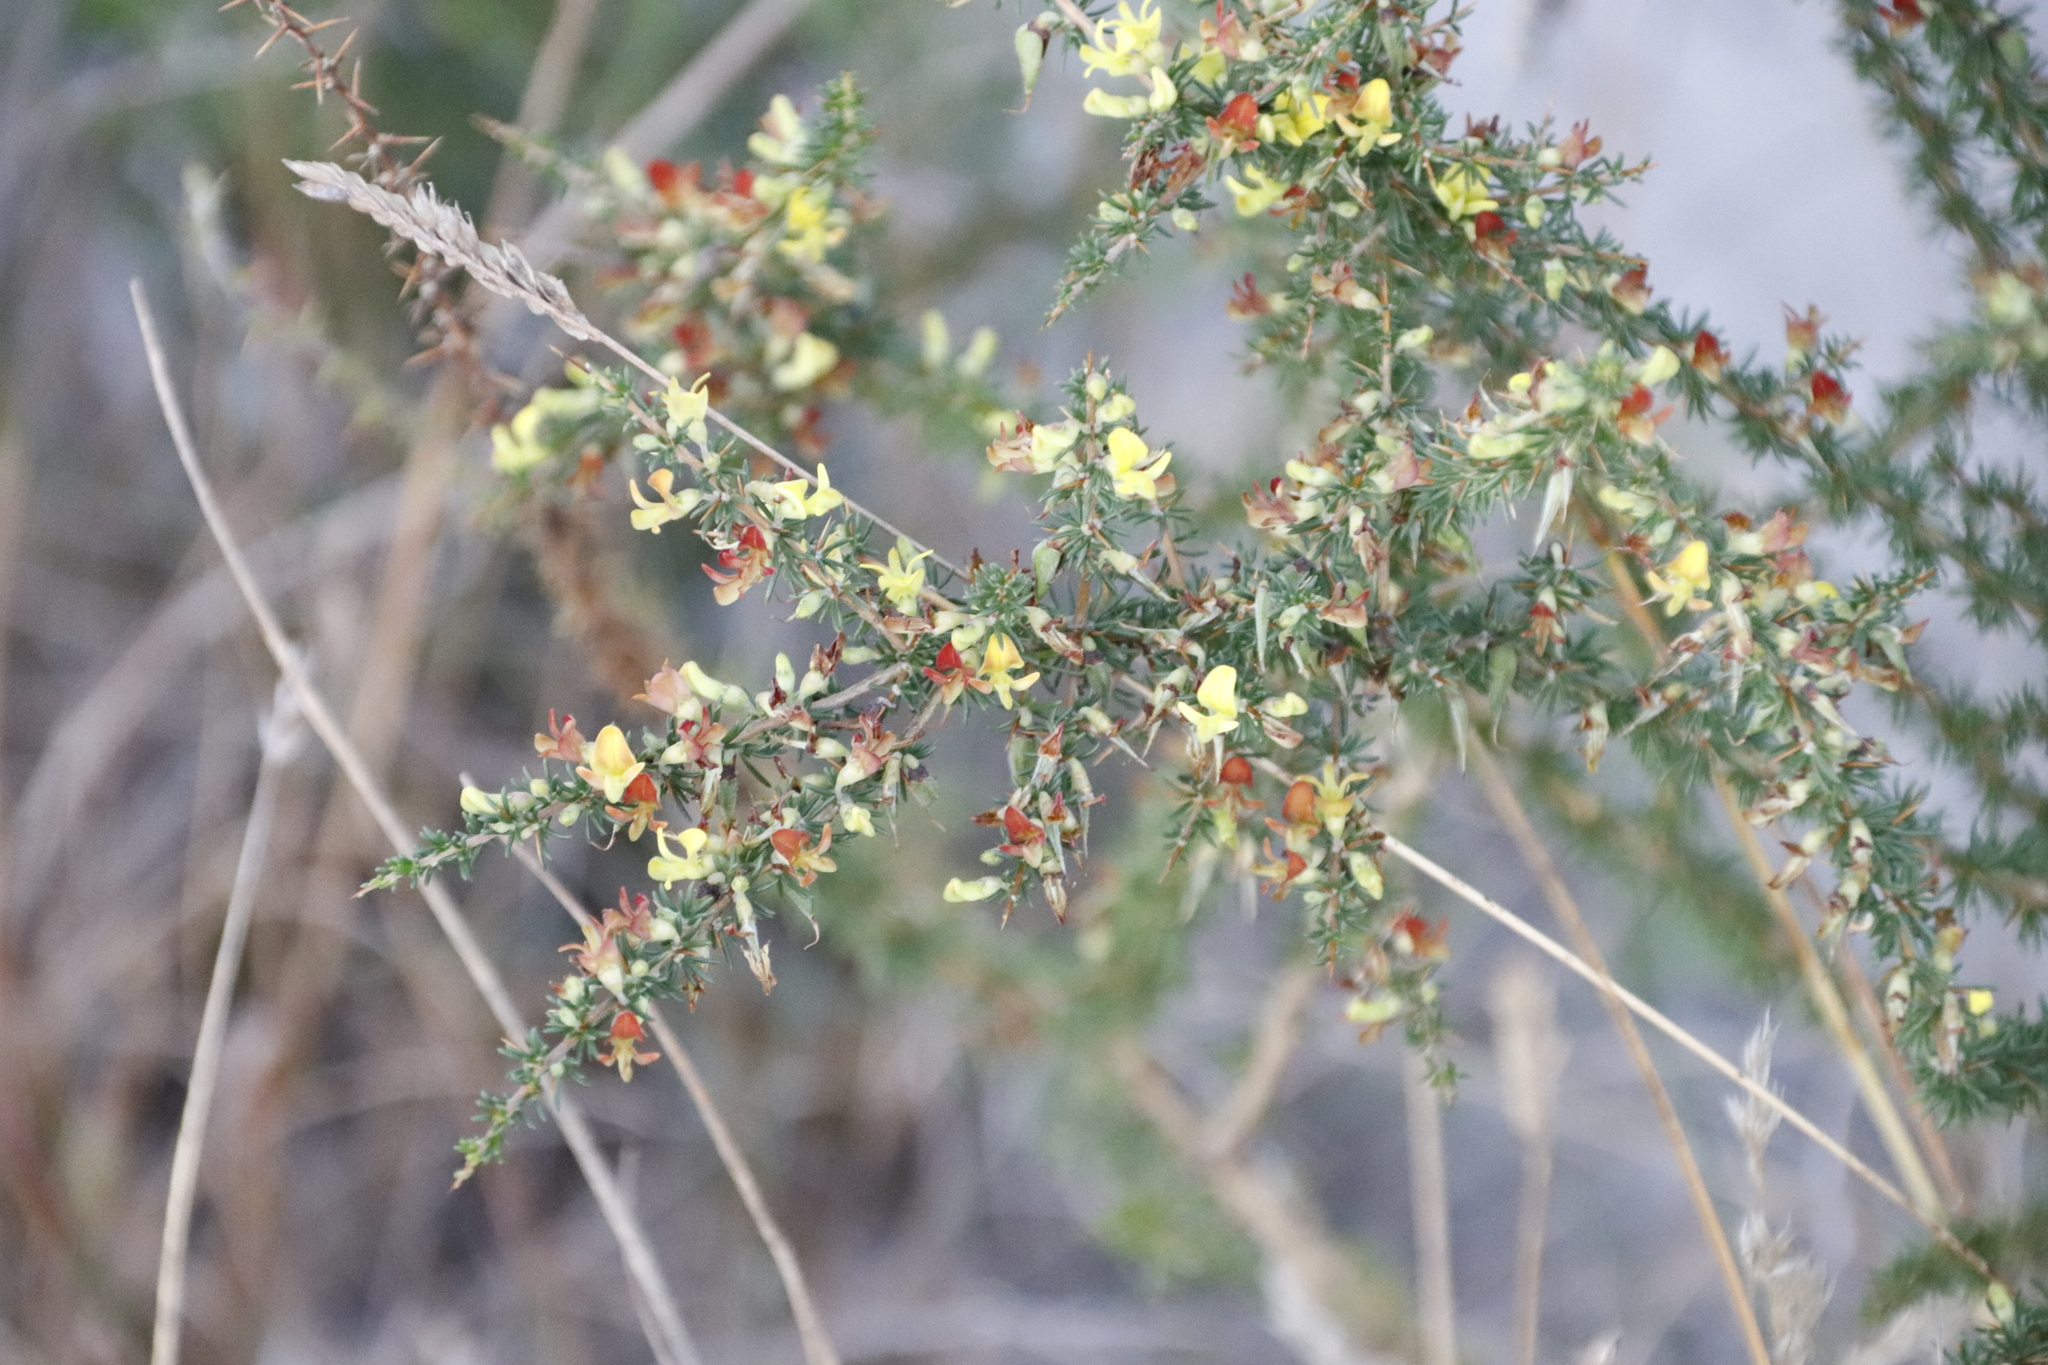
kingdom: Plantae
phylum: Tracheophyta
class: Magnoliopsida
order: Fabales
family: Fabaceae
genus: Aspalathus
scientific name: Aspalathus spinosa
